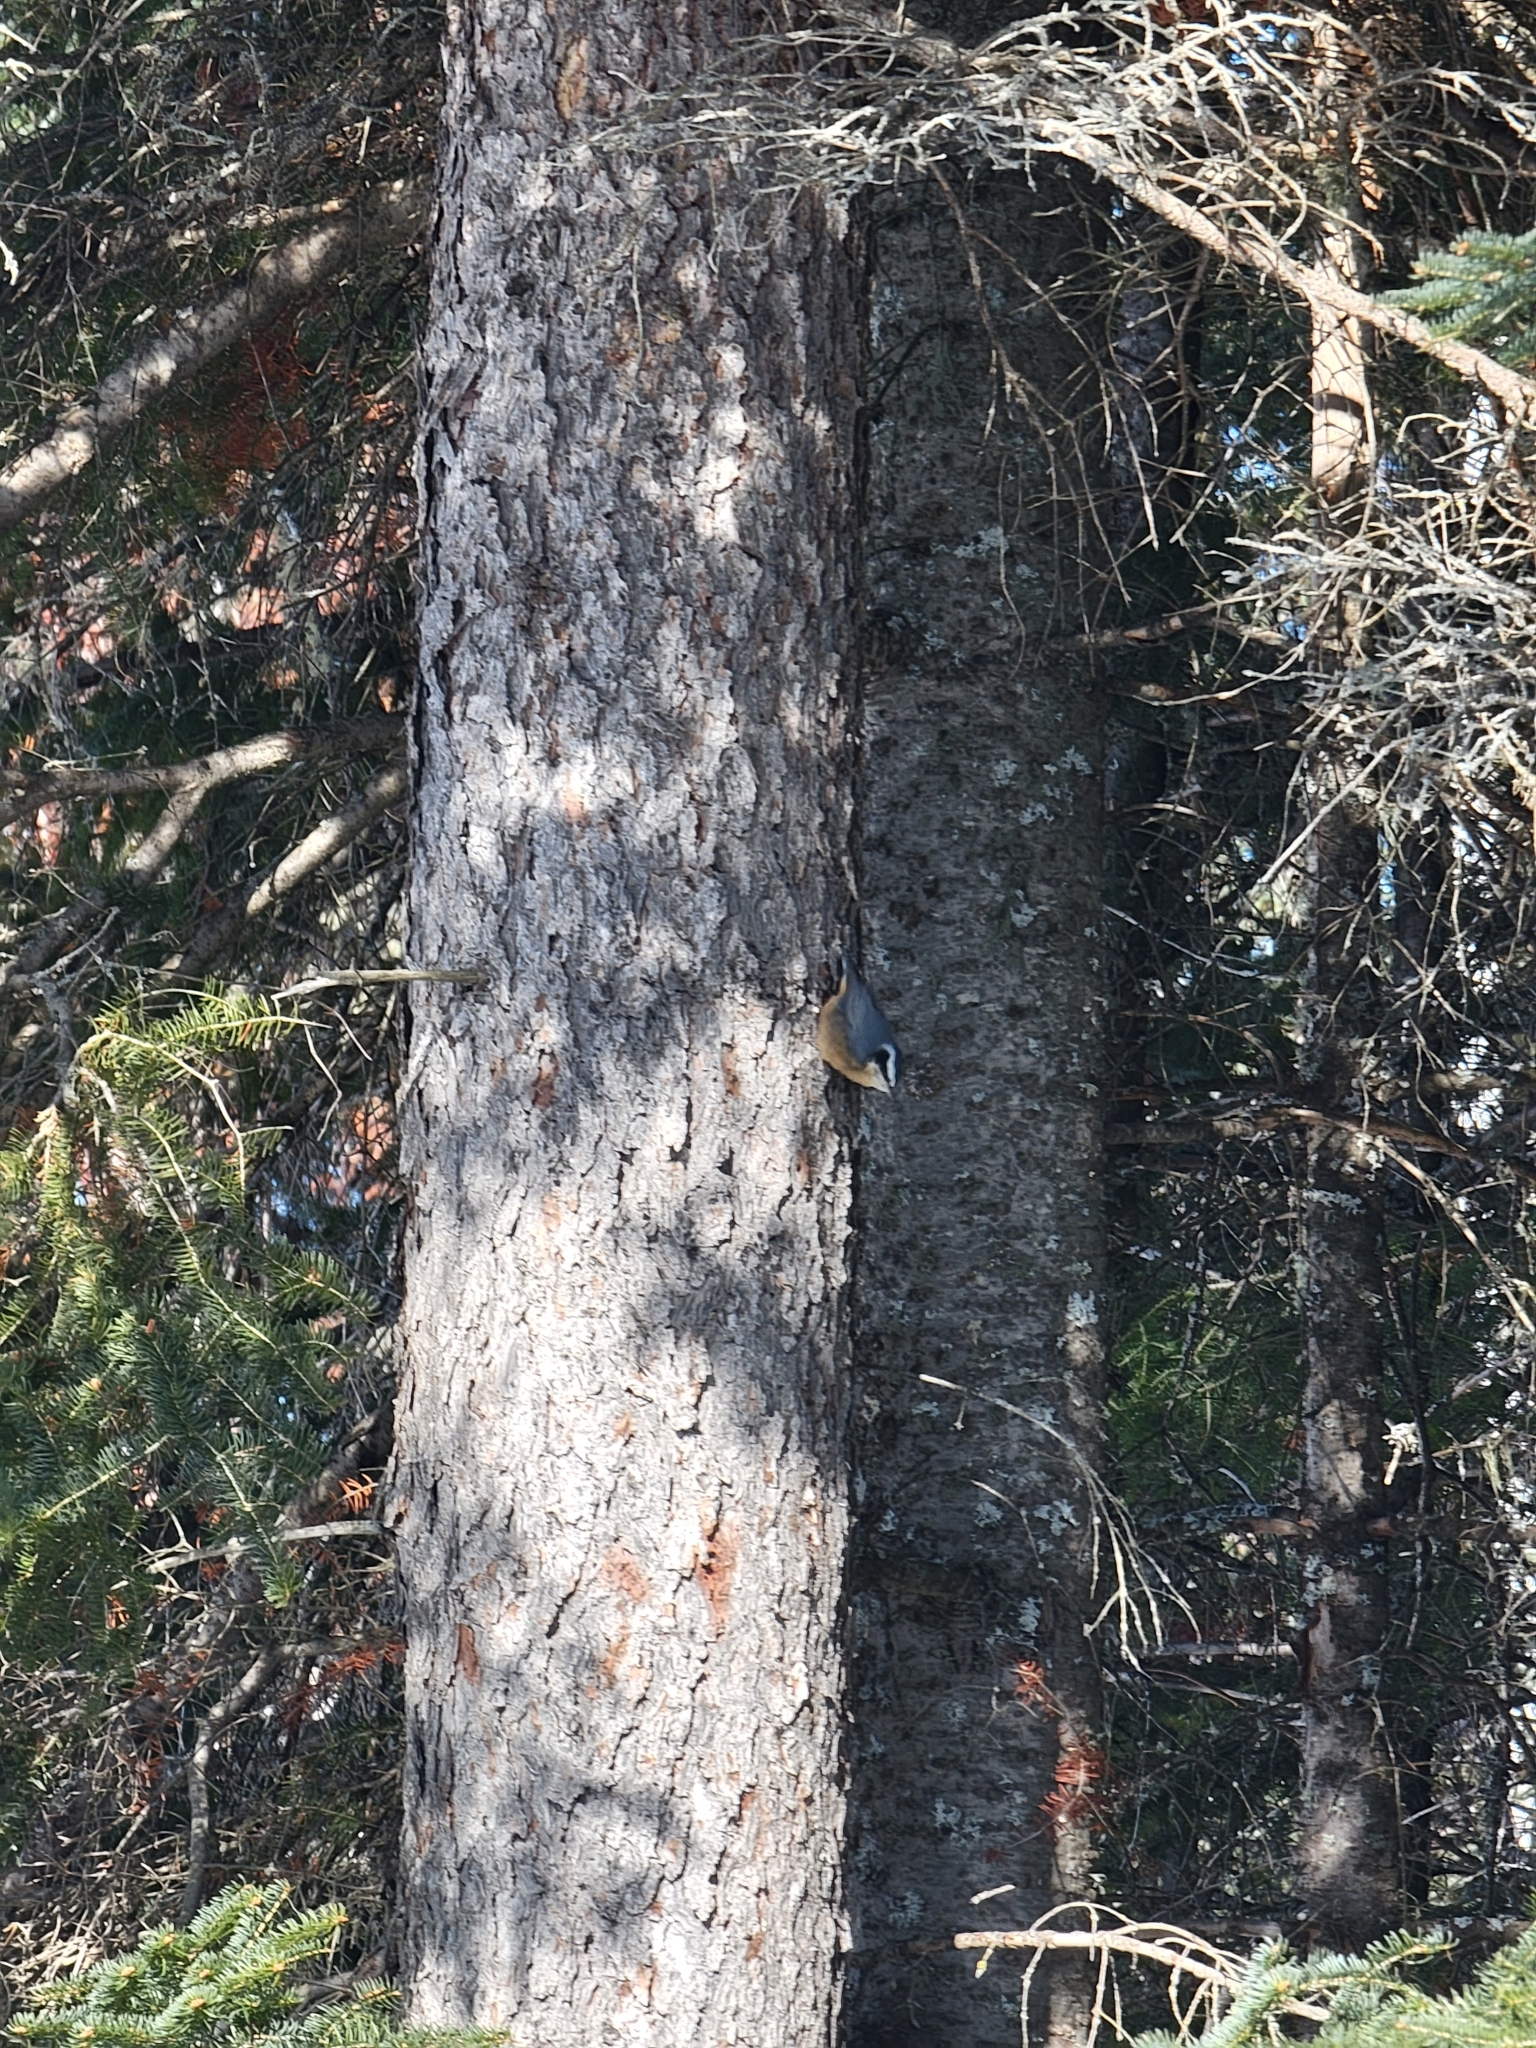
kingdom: Animalia
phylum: Chordata
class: Aves
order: Passeriformes
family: Sittidae
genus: Sitta
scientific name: Sitta canadensis
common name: Red-breasted nuthatch
